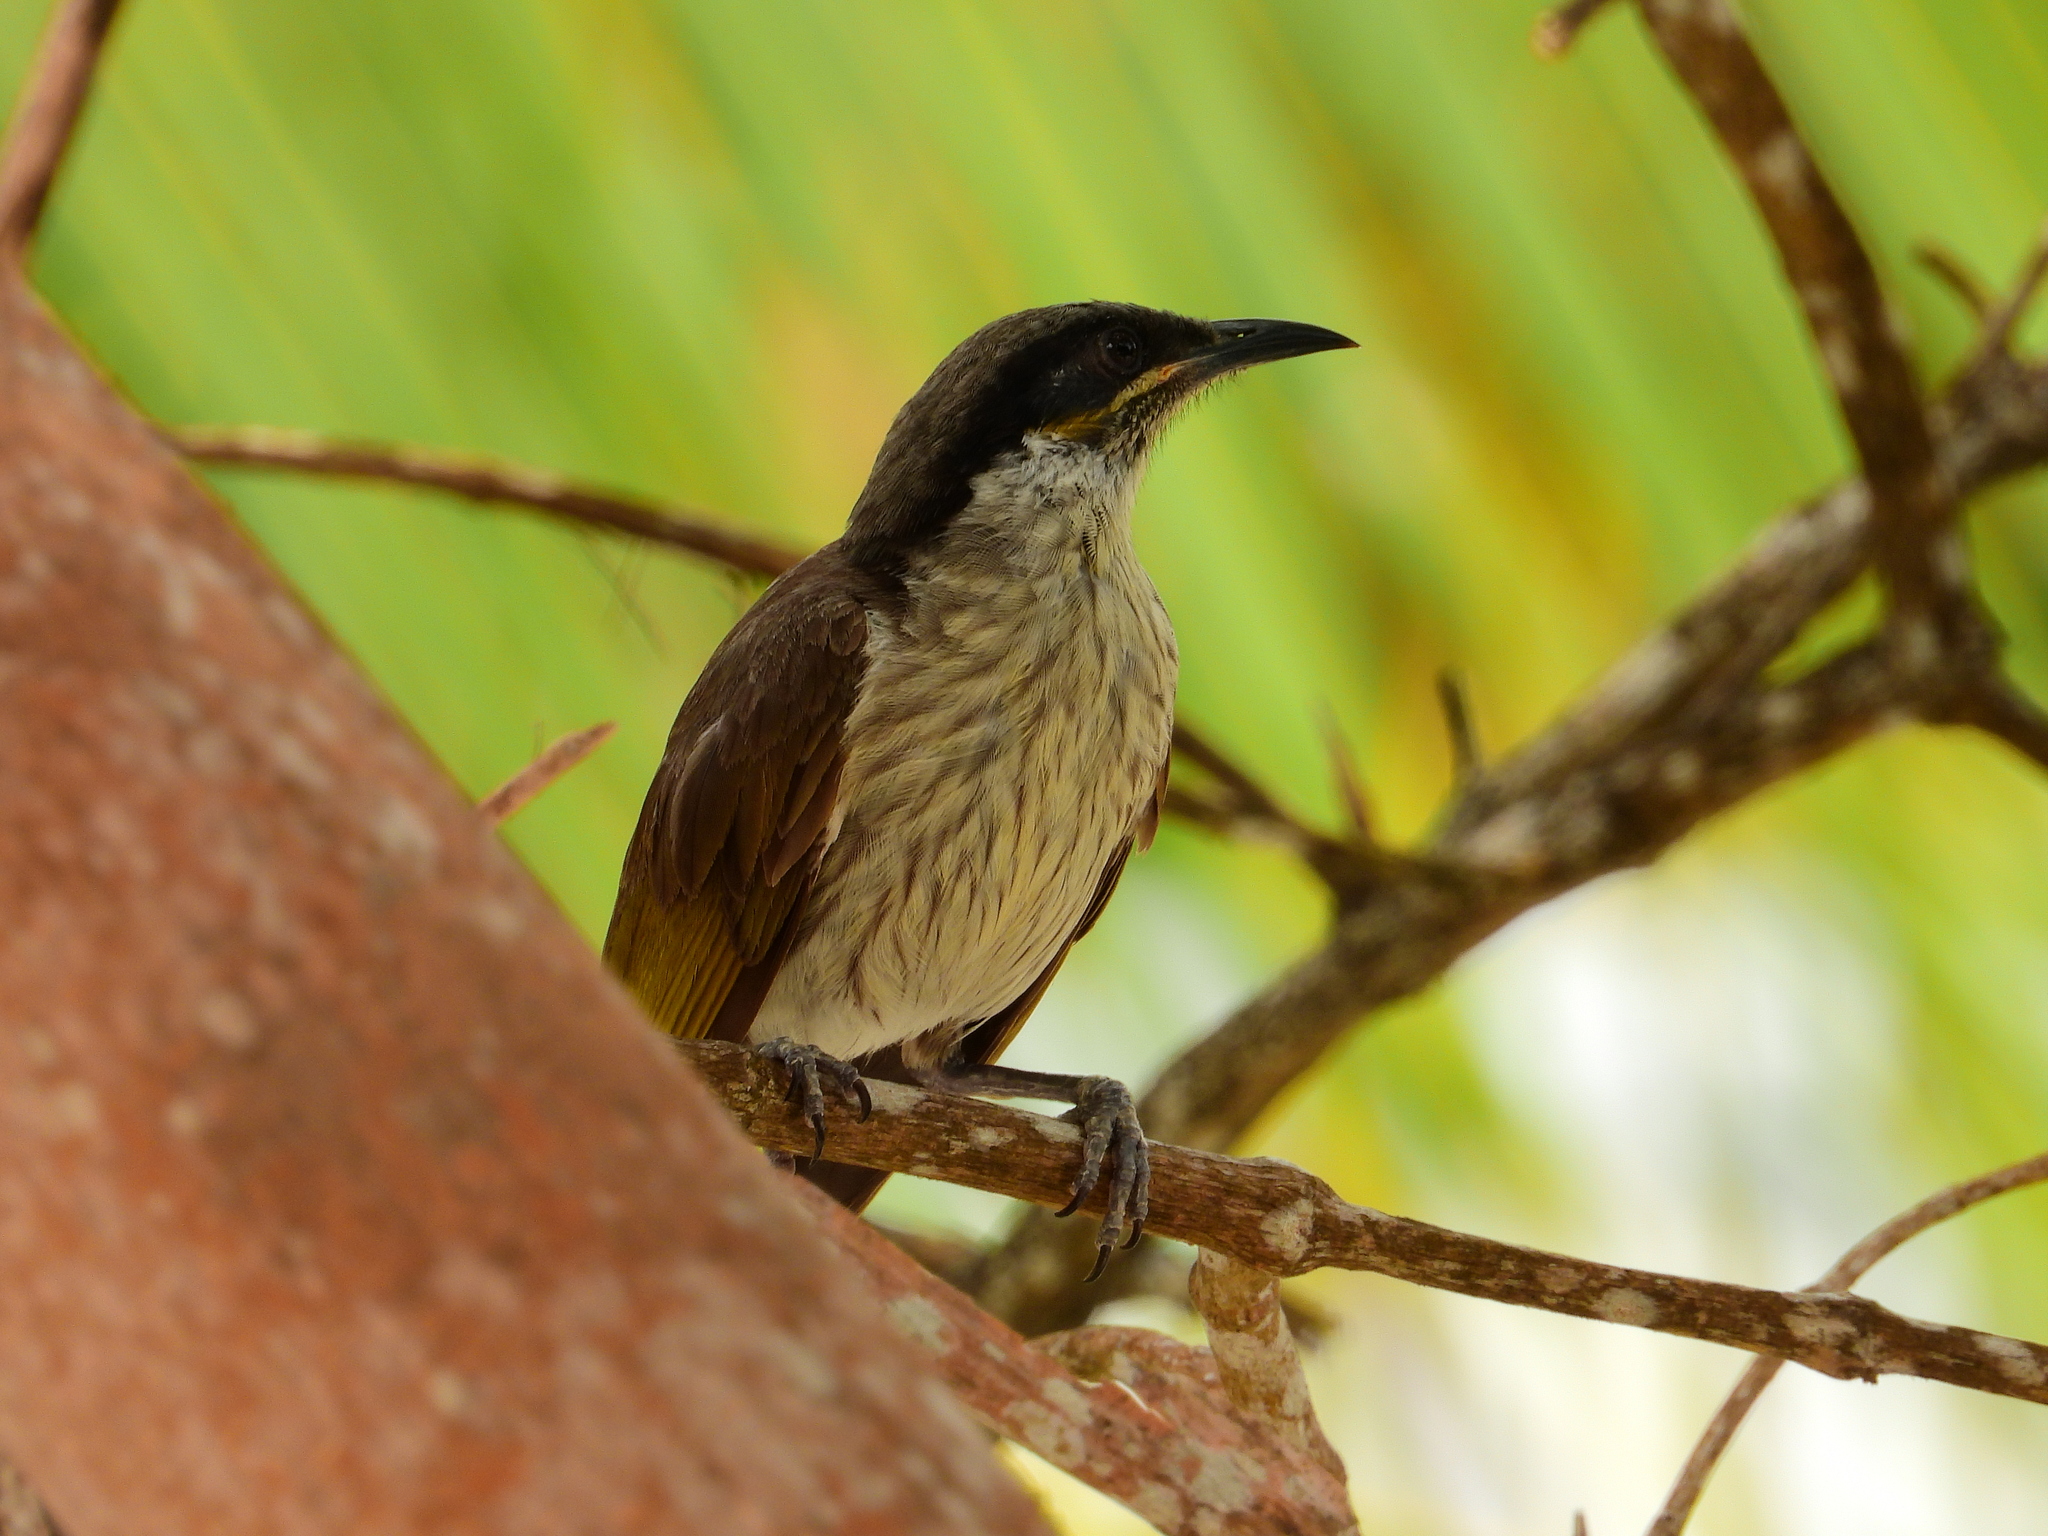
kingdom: Animalia
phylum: Chordata
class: Aves
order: Passeriformes
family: Meliphagidae
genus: Gavicalis
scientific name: Gavicalis versicolor
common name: Varied honeyeater
